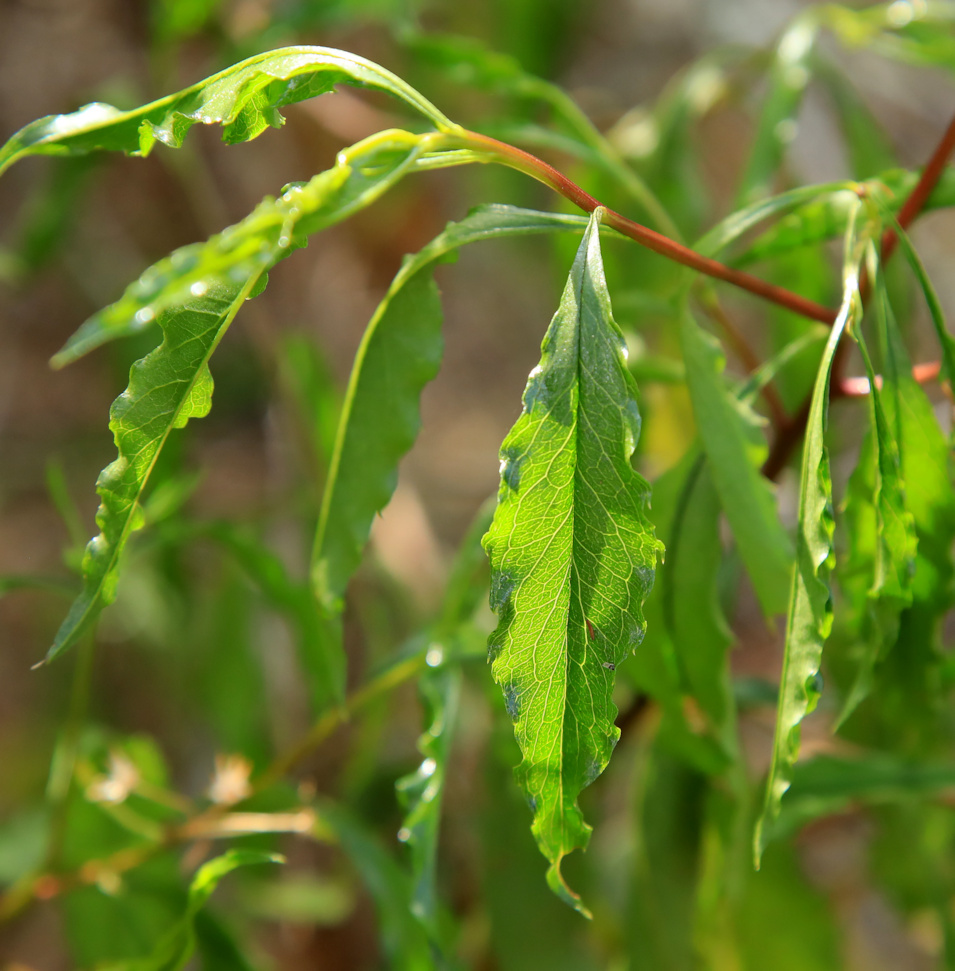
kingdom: Plantae
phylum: Tracheophyta
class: Magnoliopsida
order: Asterales
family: Asteraceae
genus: Psiadia
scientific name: Psiadia punctulata
